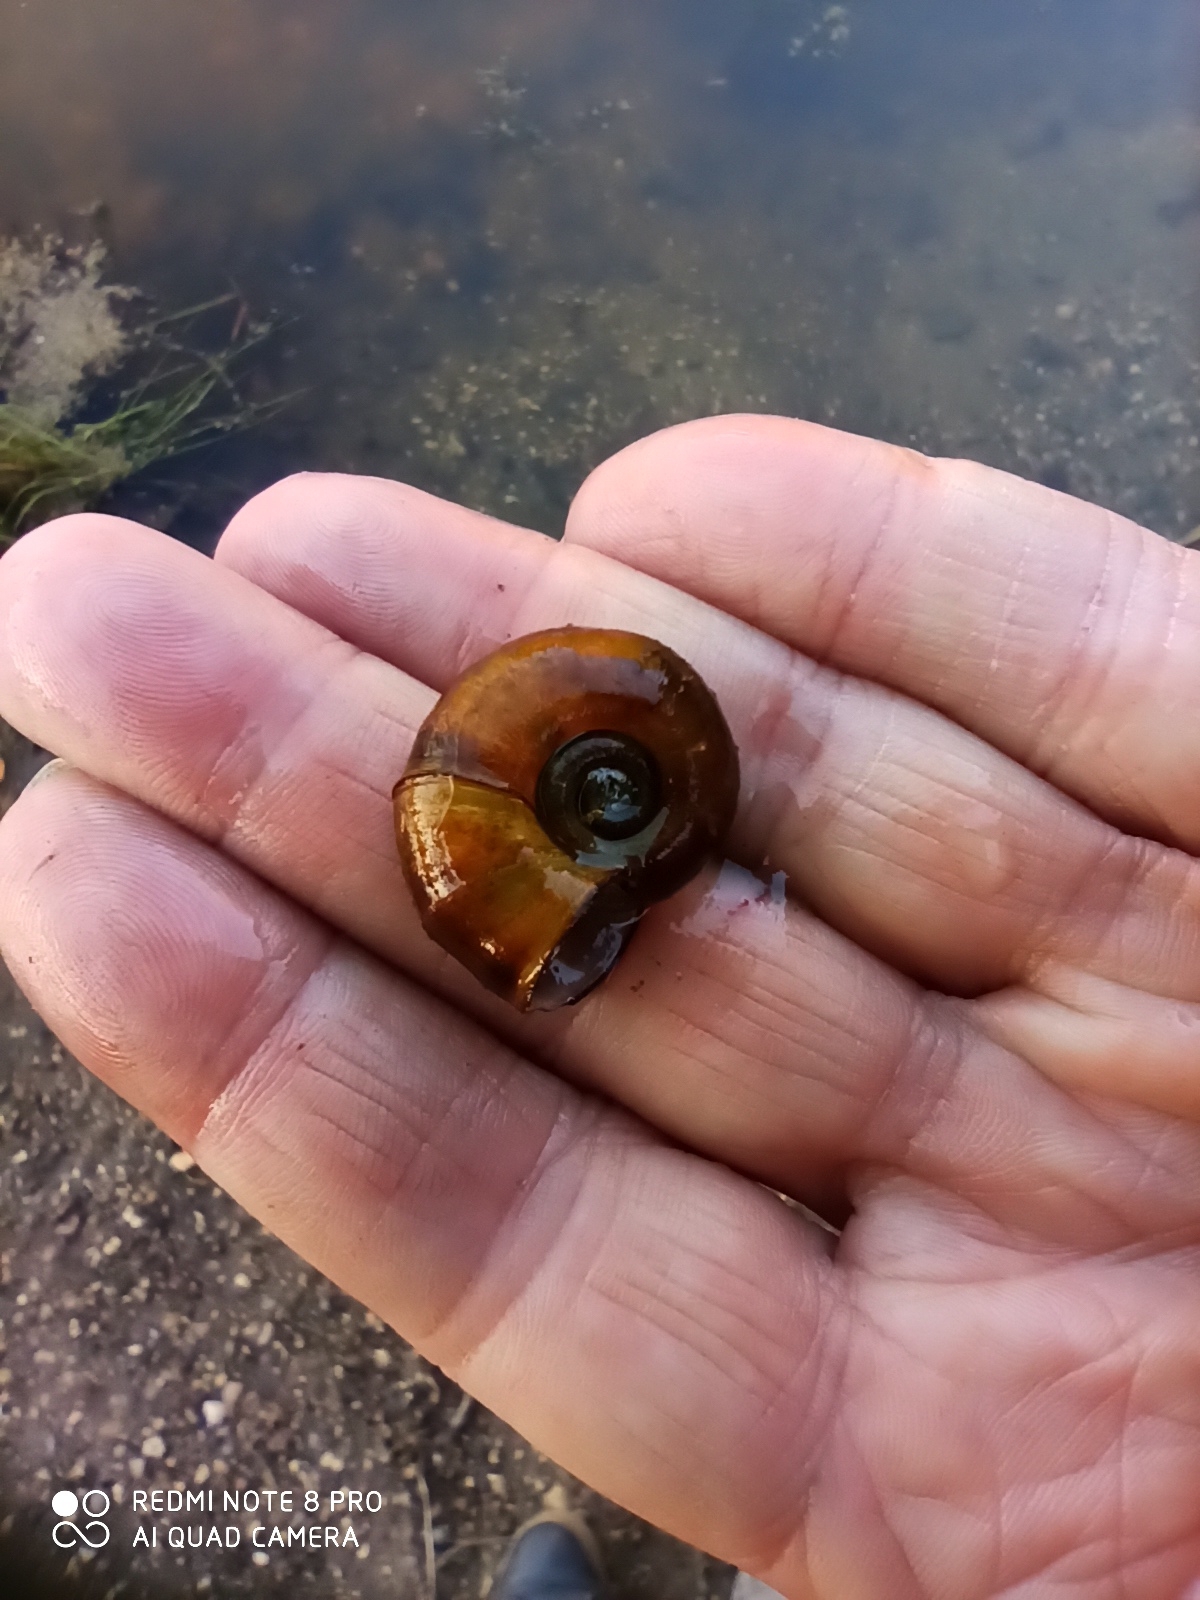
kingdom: Animalia
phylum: Mollusca
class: Gastropoda
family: Planorbidae
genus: Planorbarius
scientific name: Planorbarius corneus
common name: Great ramshorn
